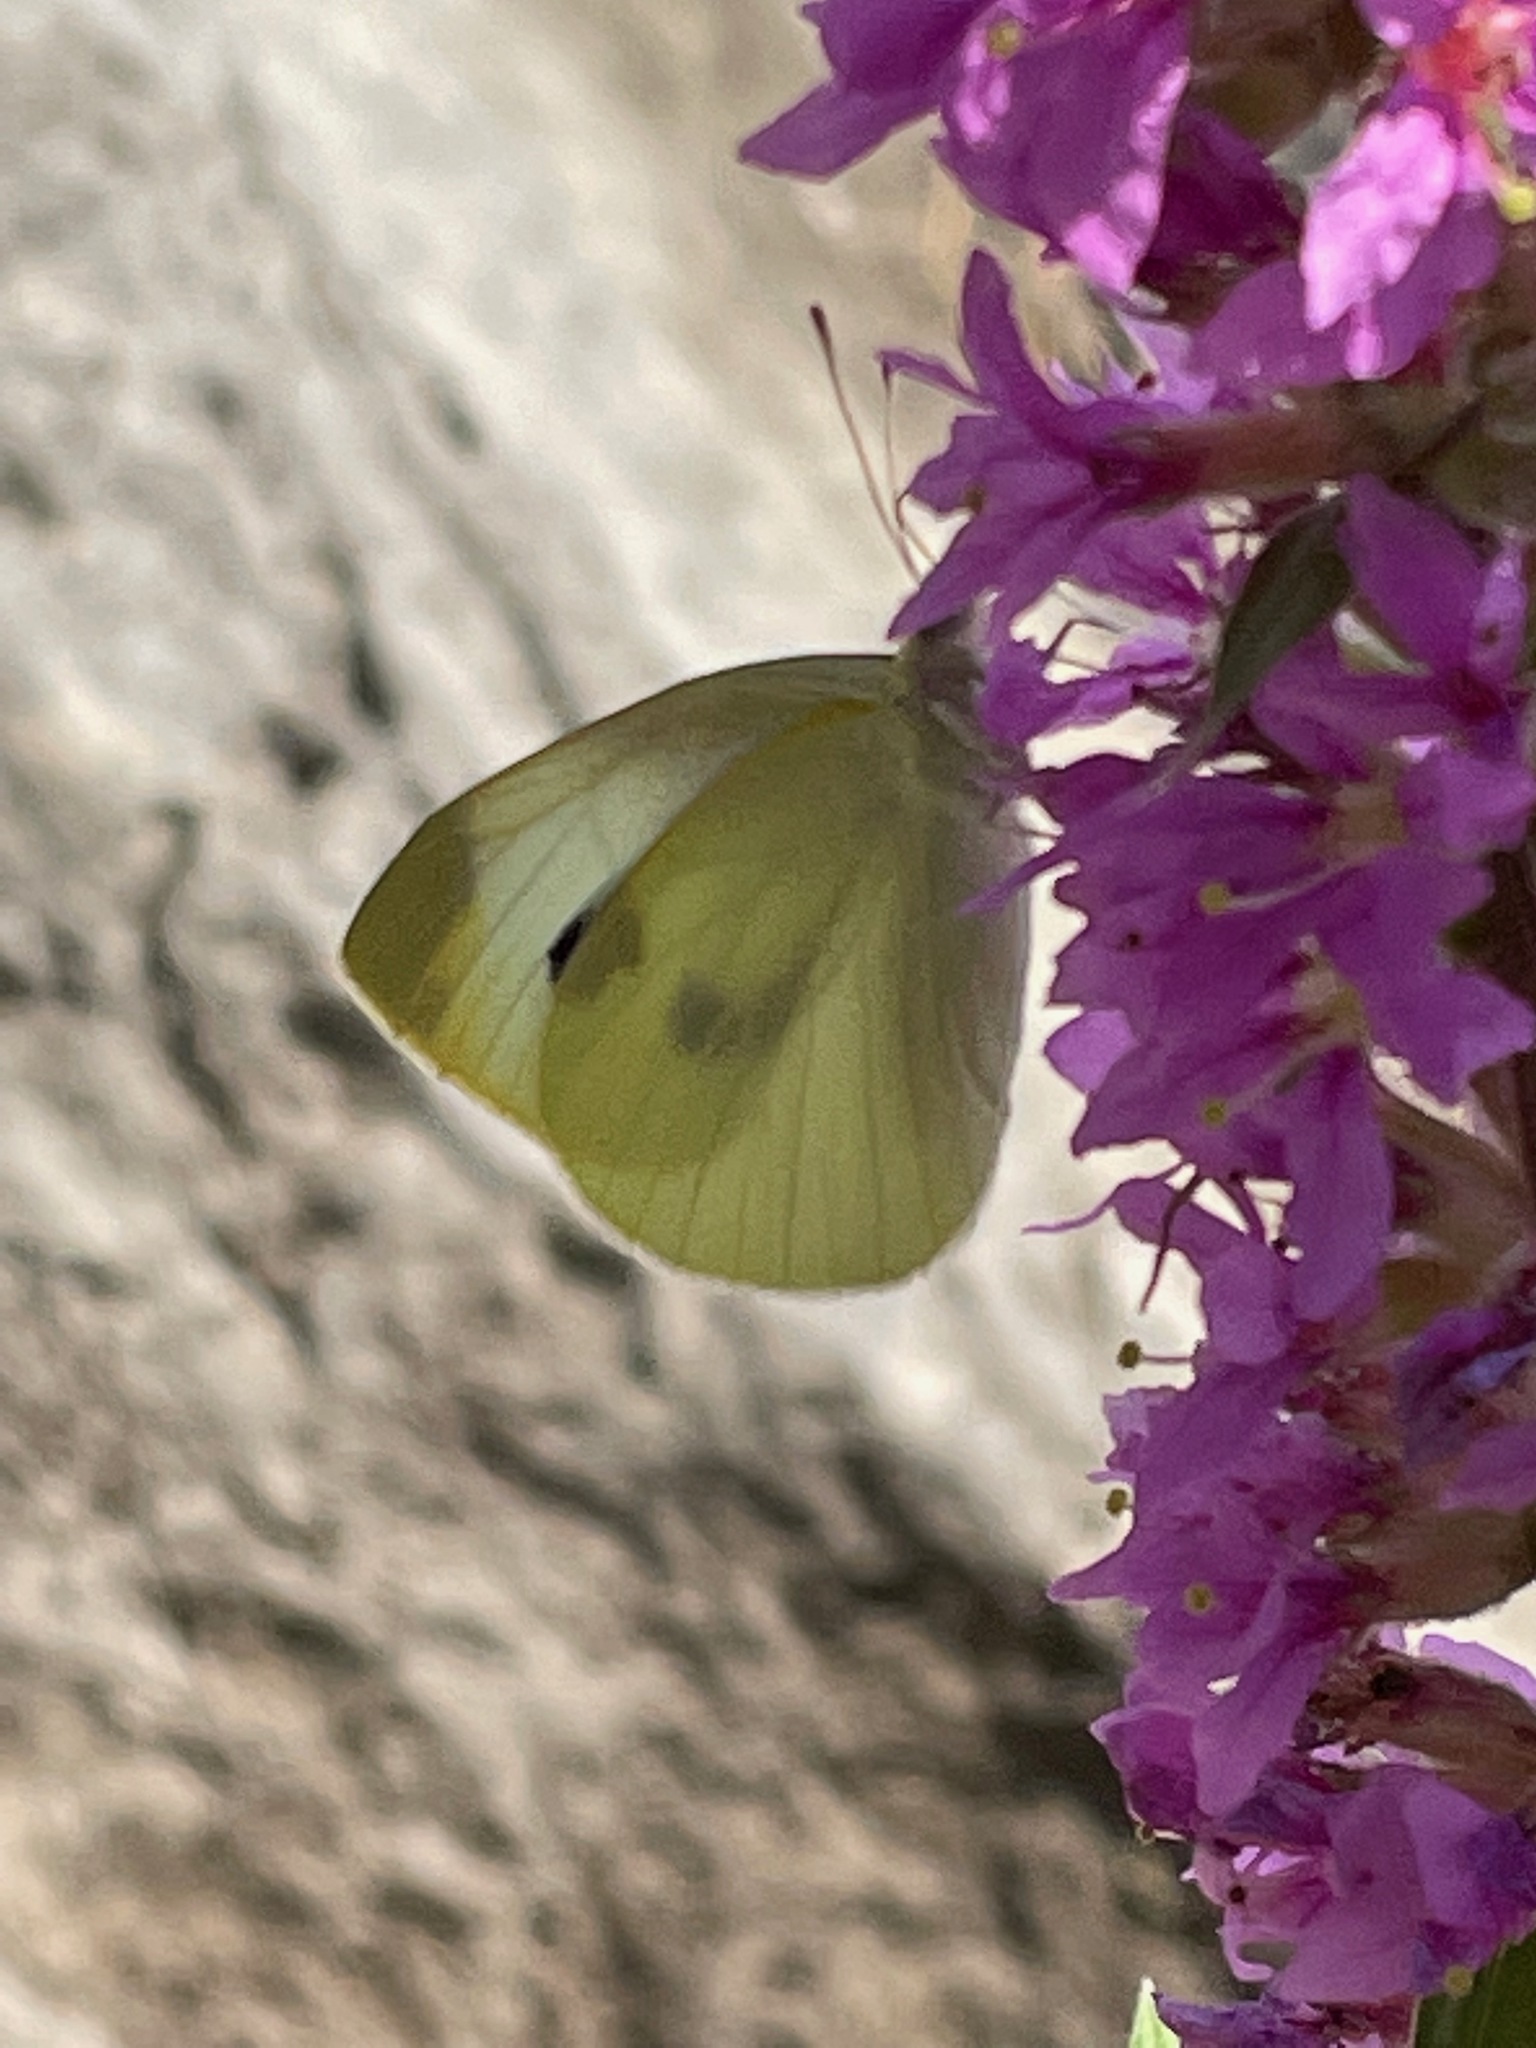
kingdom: Animalia
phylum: Arthropoda
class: Insecta
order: Lepidoptera
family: Pieridae
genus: Pieris
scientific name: Pieris rapae
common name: Small white
